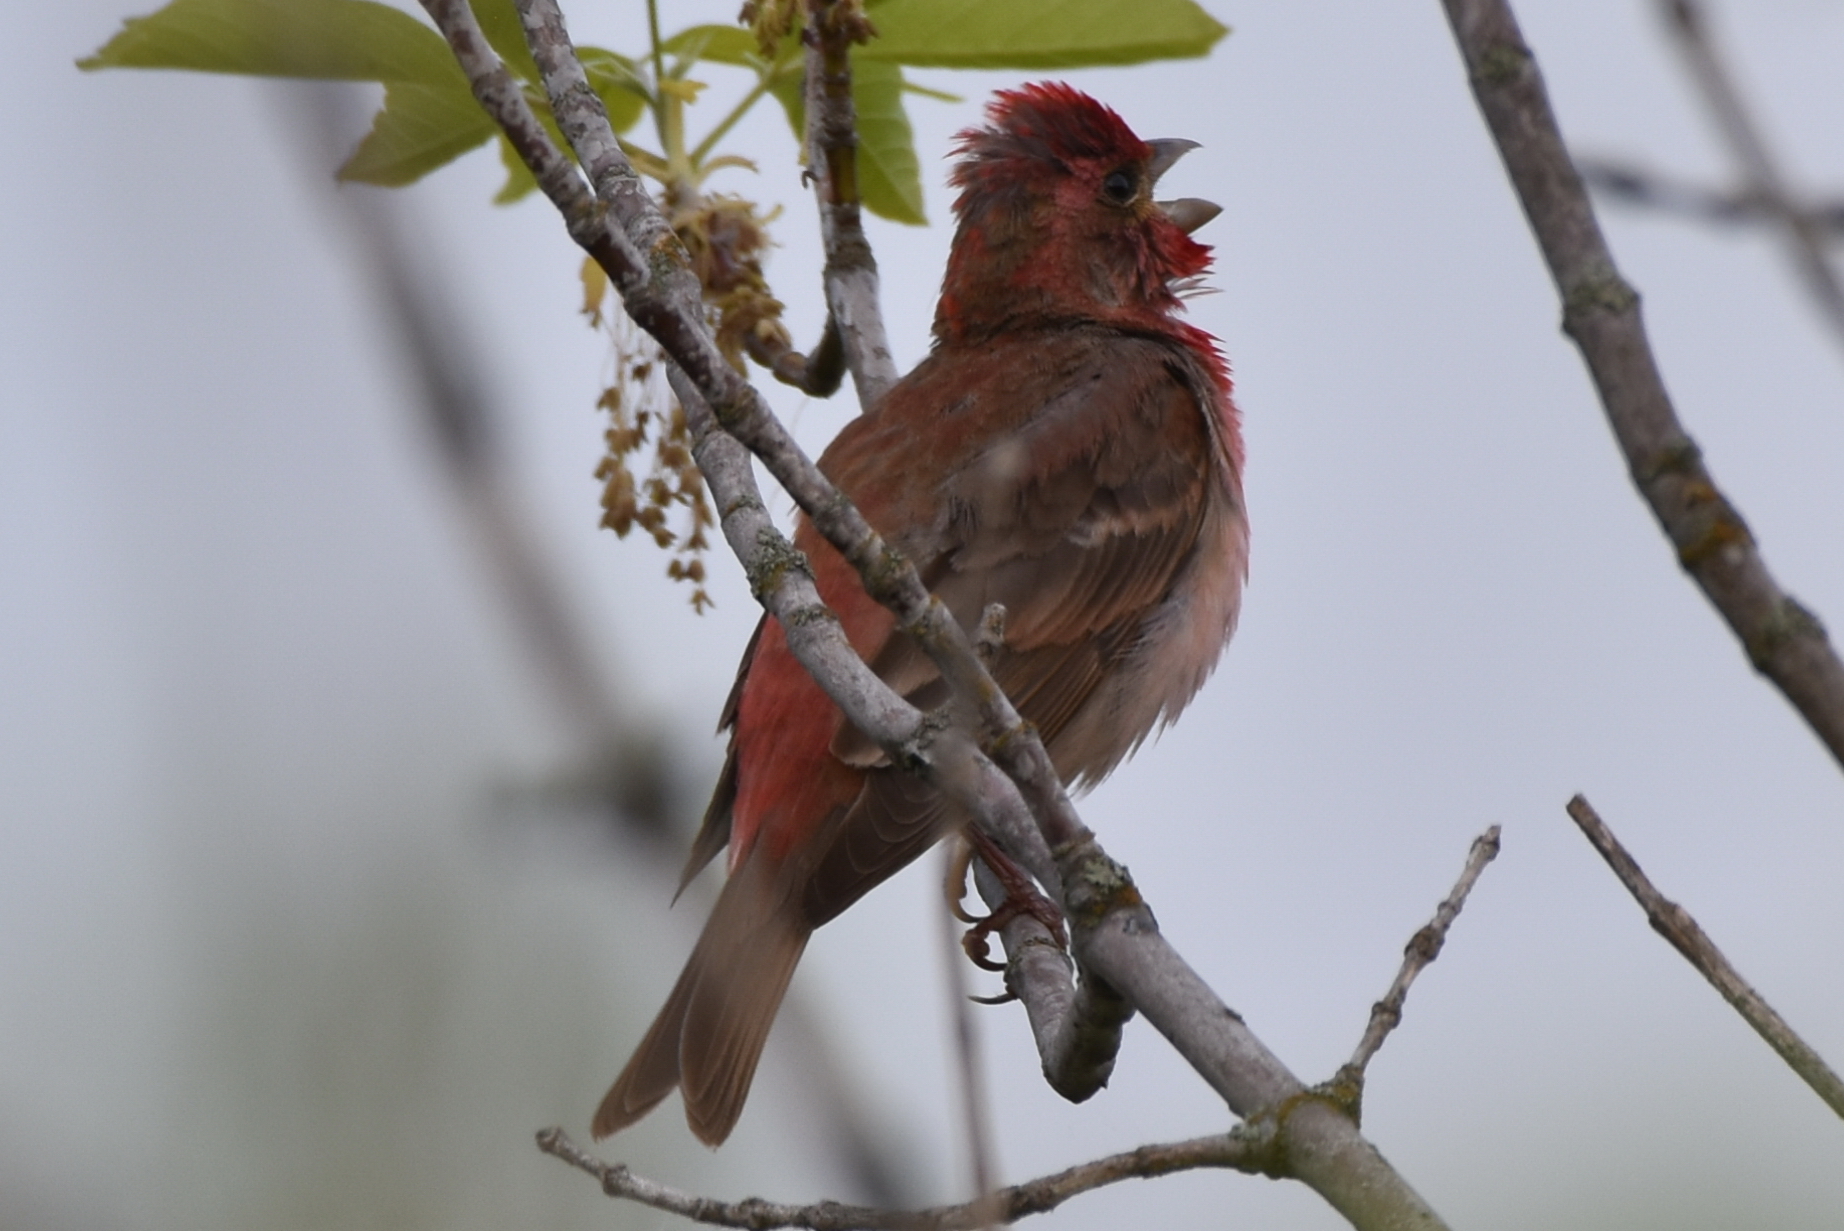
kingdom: Animalia
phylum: Chordata
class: Aves
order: Passeriformes
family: Fringillidae
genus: Carpodacus
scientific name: Carpodacus erythrinus
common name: Common rosefinch
